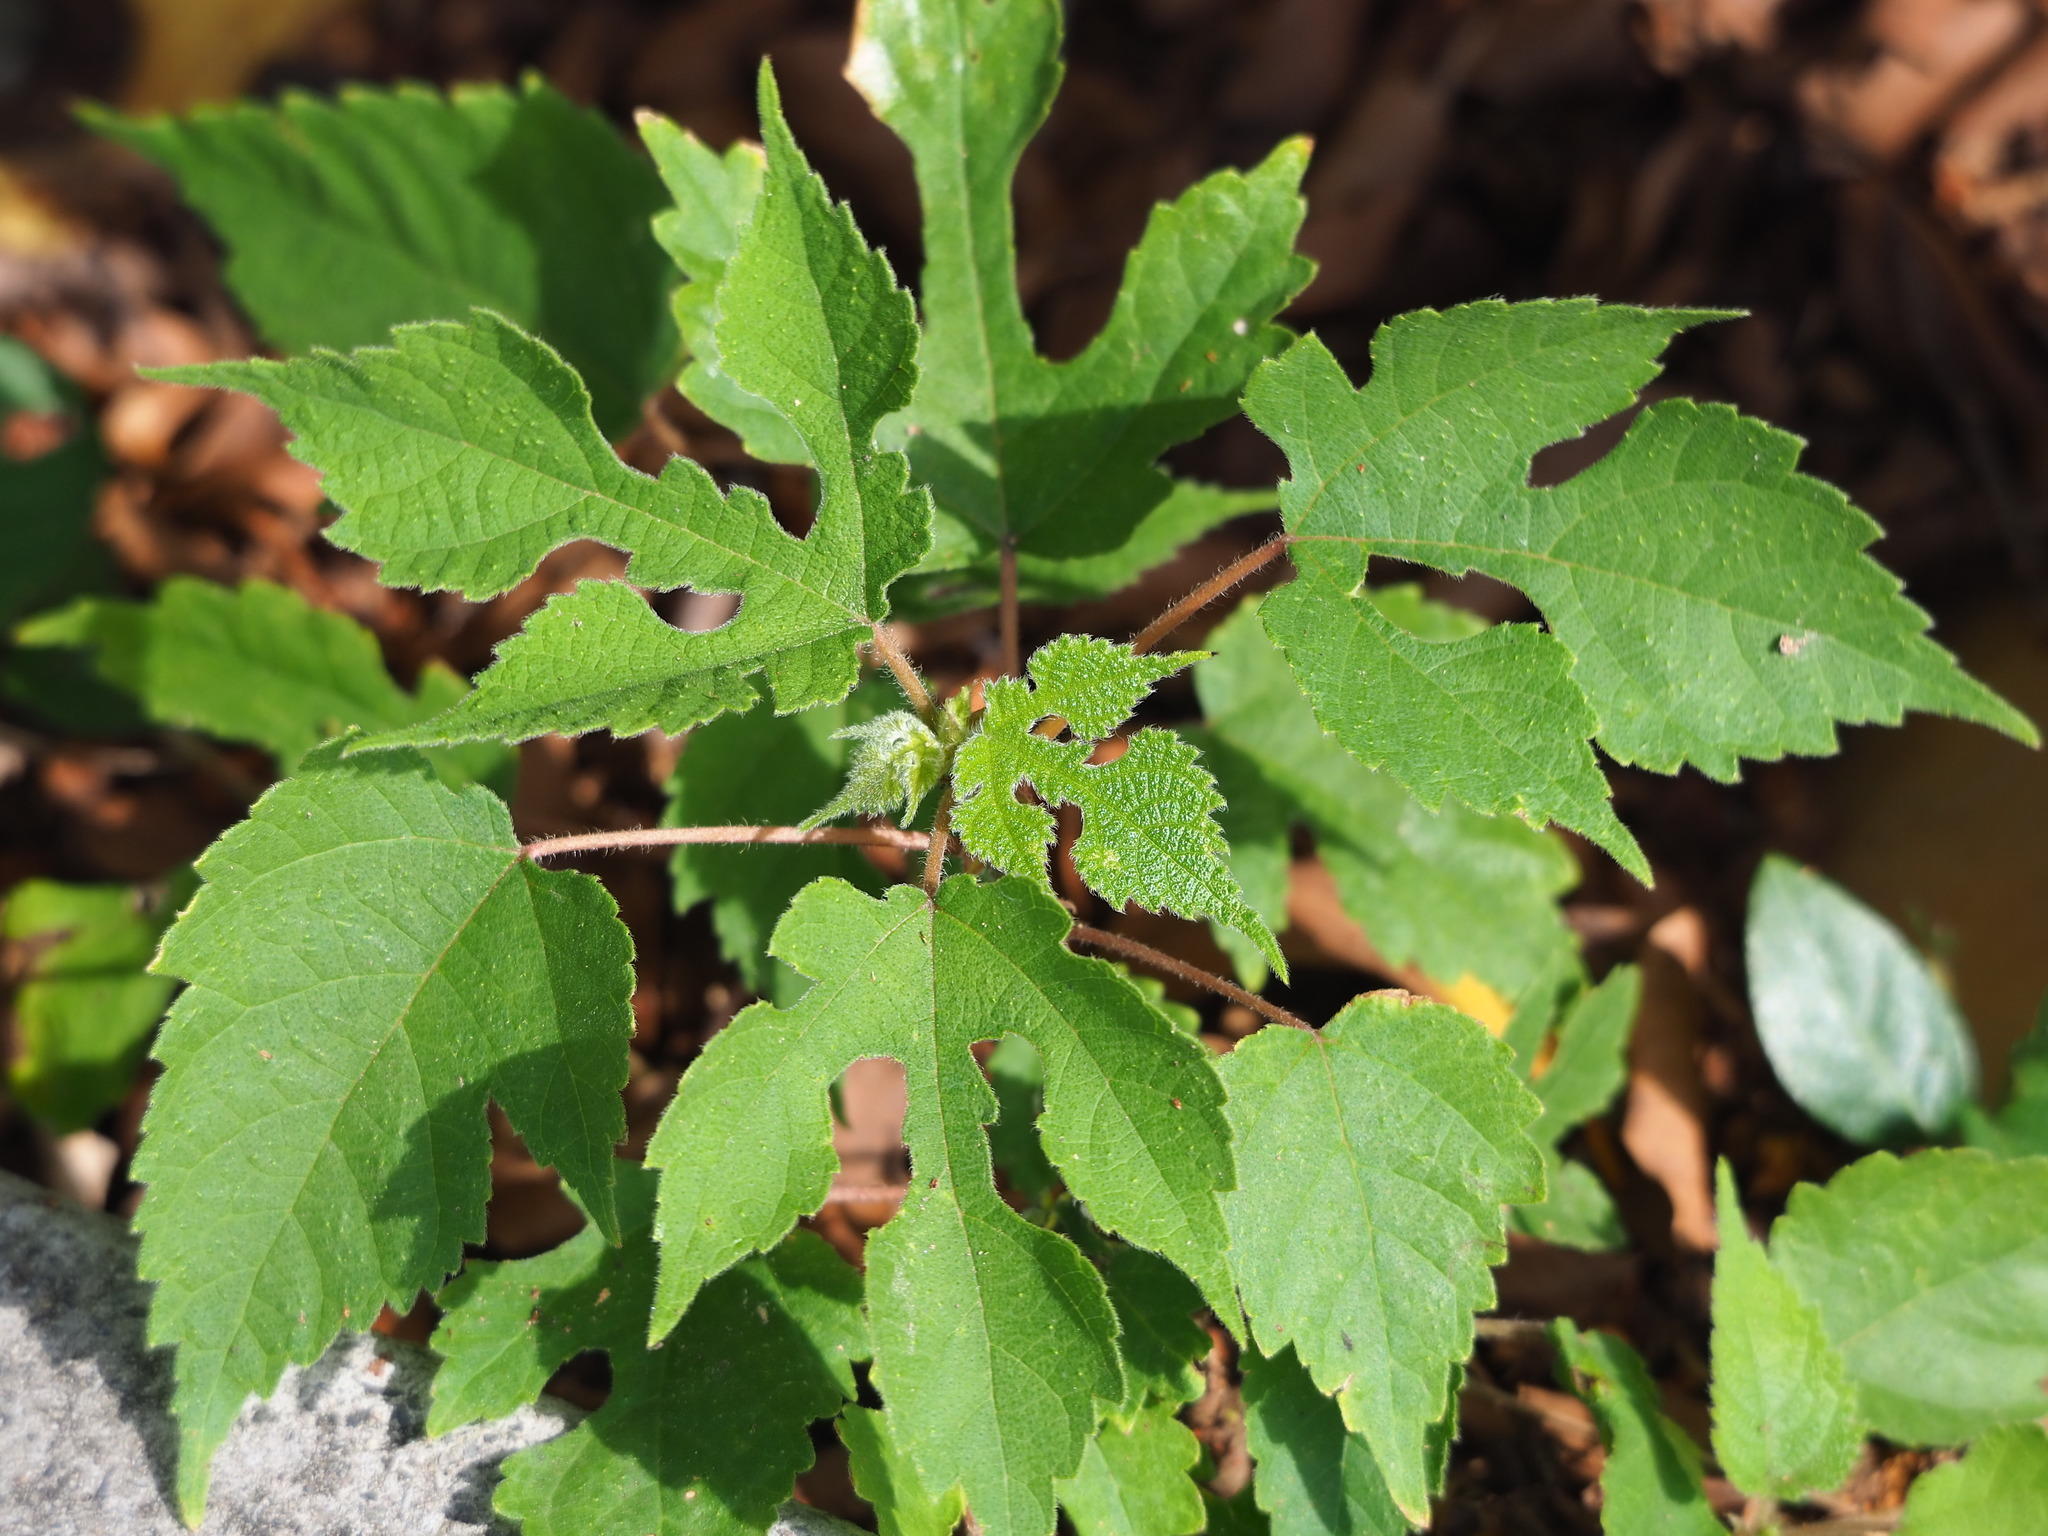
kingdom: Plantae
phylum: Tracheophyta
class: Magnoliopsida
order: Rosales
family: Moraceae
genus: Broussonetia
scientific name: Broussonetia papyrifera
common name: Paper mulberry
